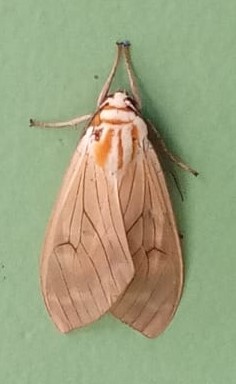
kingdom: Animalia
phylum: Arthropoda
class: Insecta
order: Lepidoptera
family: Erebidae
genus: Amastus
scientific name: Amastus aconia
